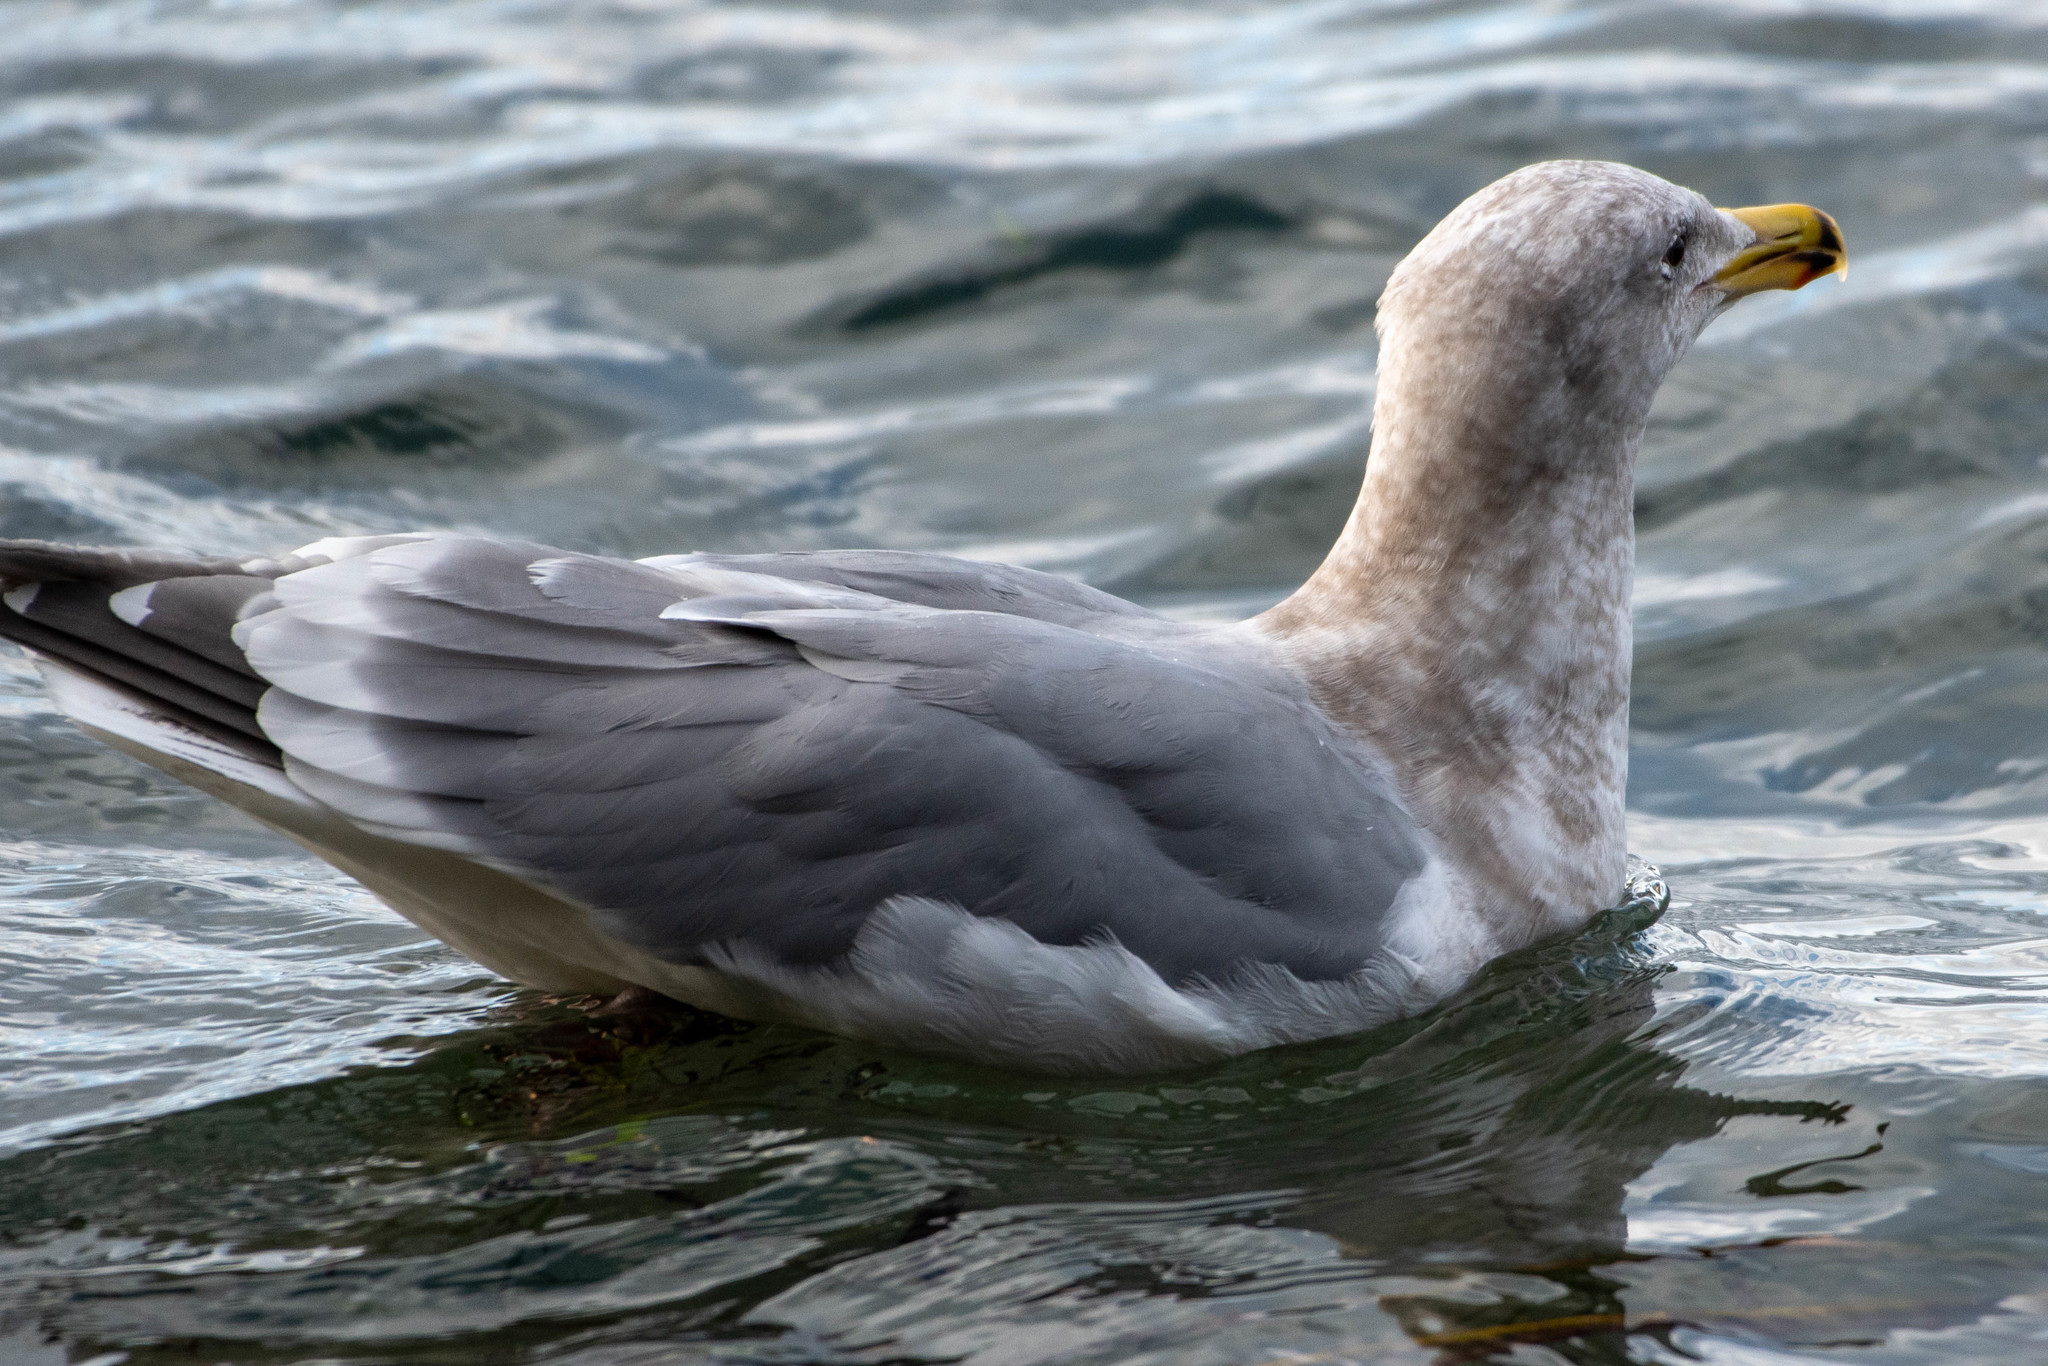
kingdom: Animalia
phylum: Chordata
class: Aves
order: Charadriiformes
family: Laridae
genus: Larus
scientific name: Larus
